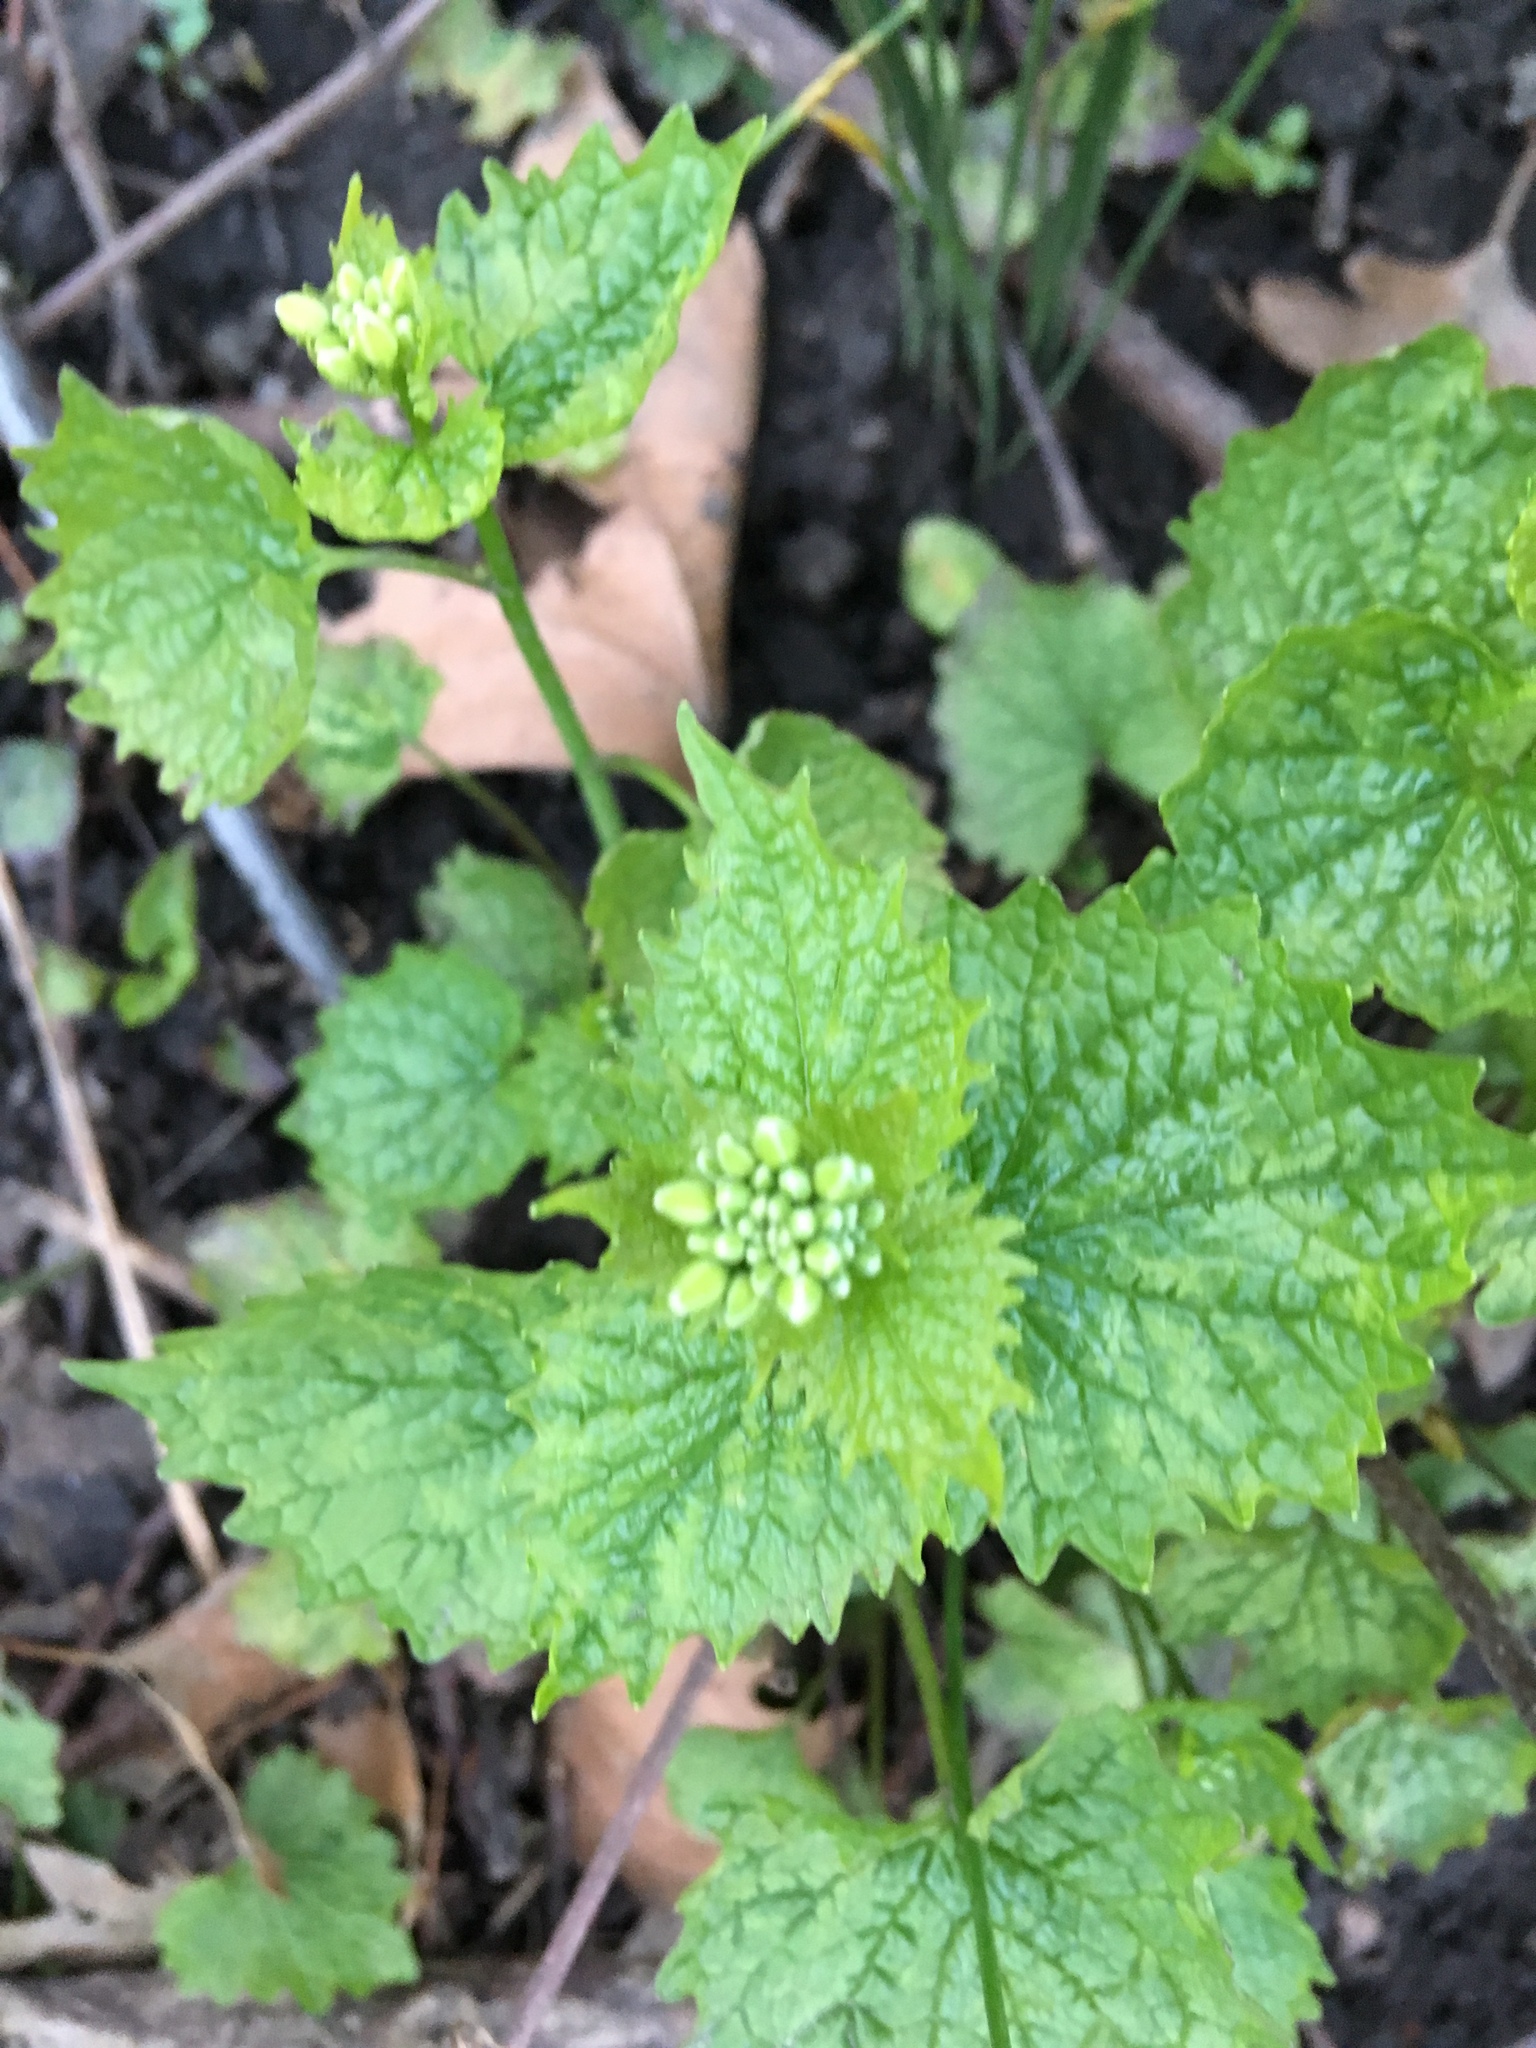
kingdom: Plantae
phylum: Tracheophyta
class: Magnoliopsida
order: Brassicales
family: Brassicaceae
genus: Alliaria
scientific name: Alliaria petiolata
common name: Garlic mustard
